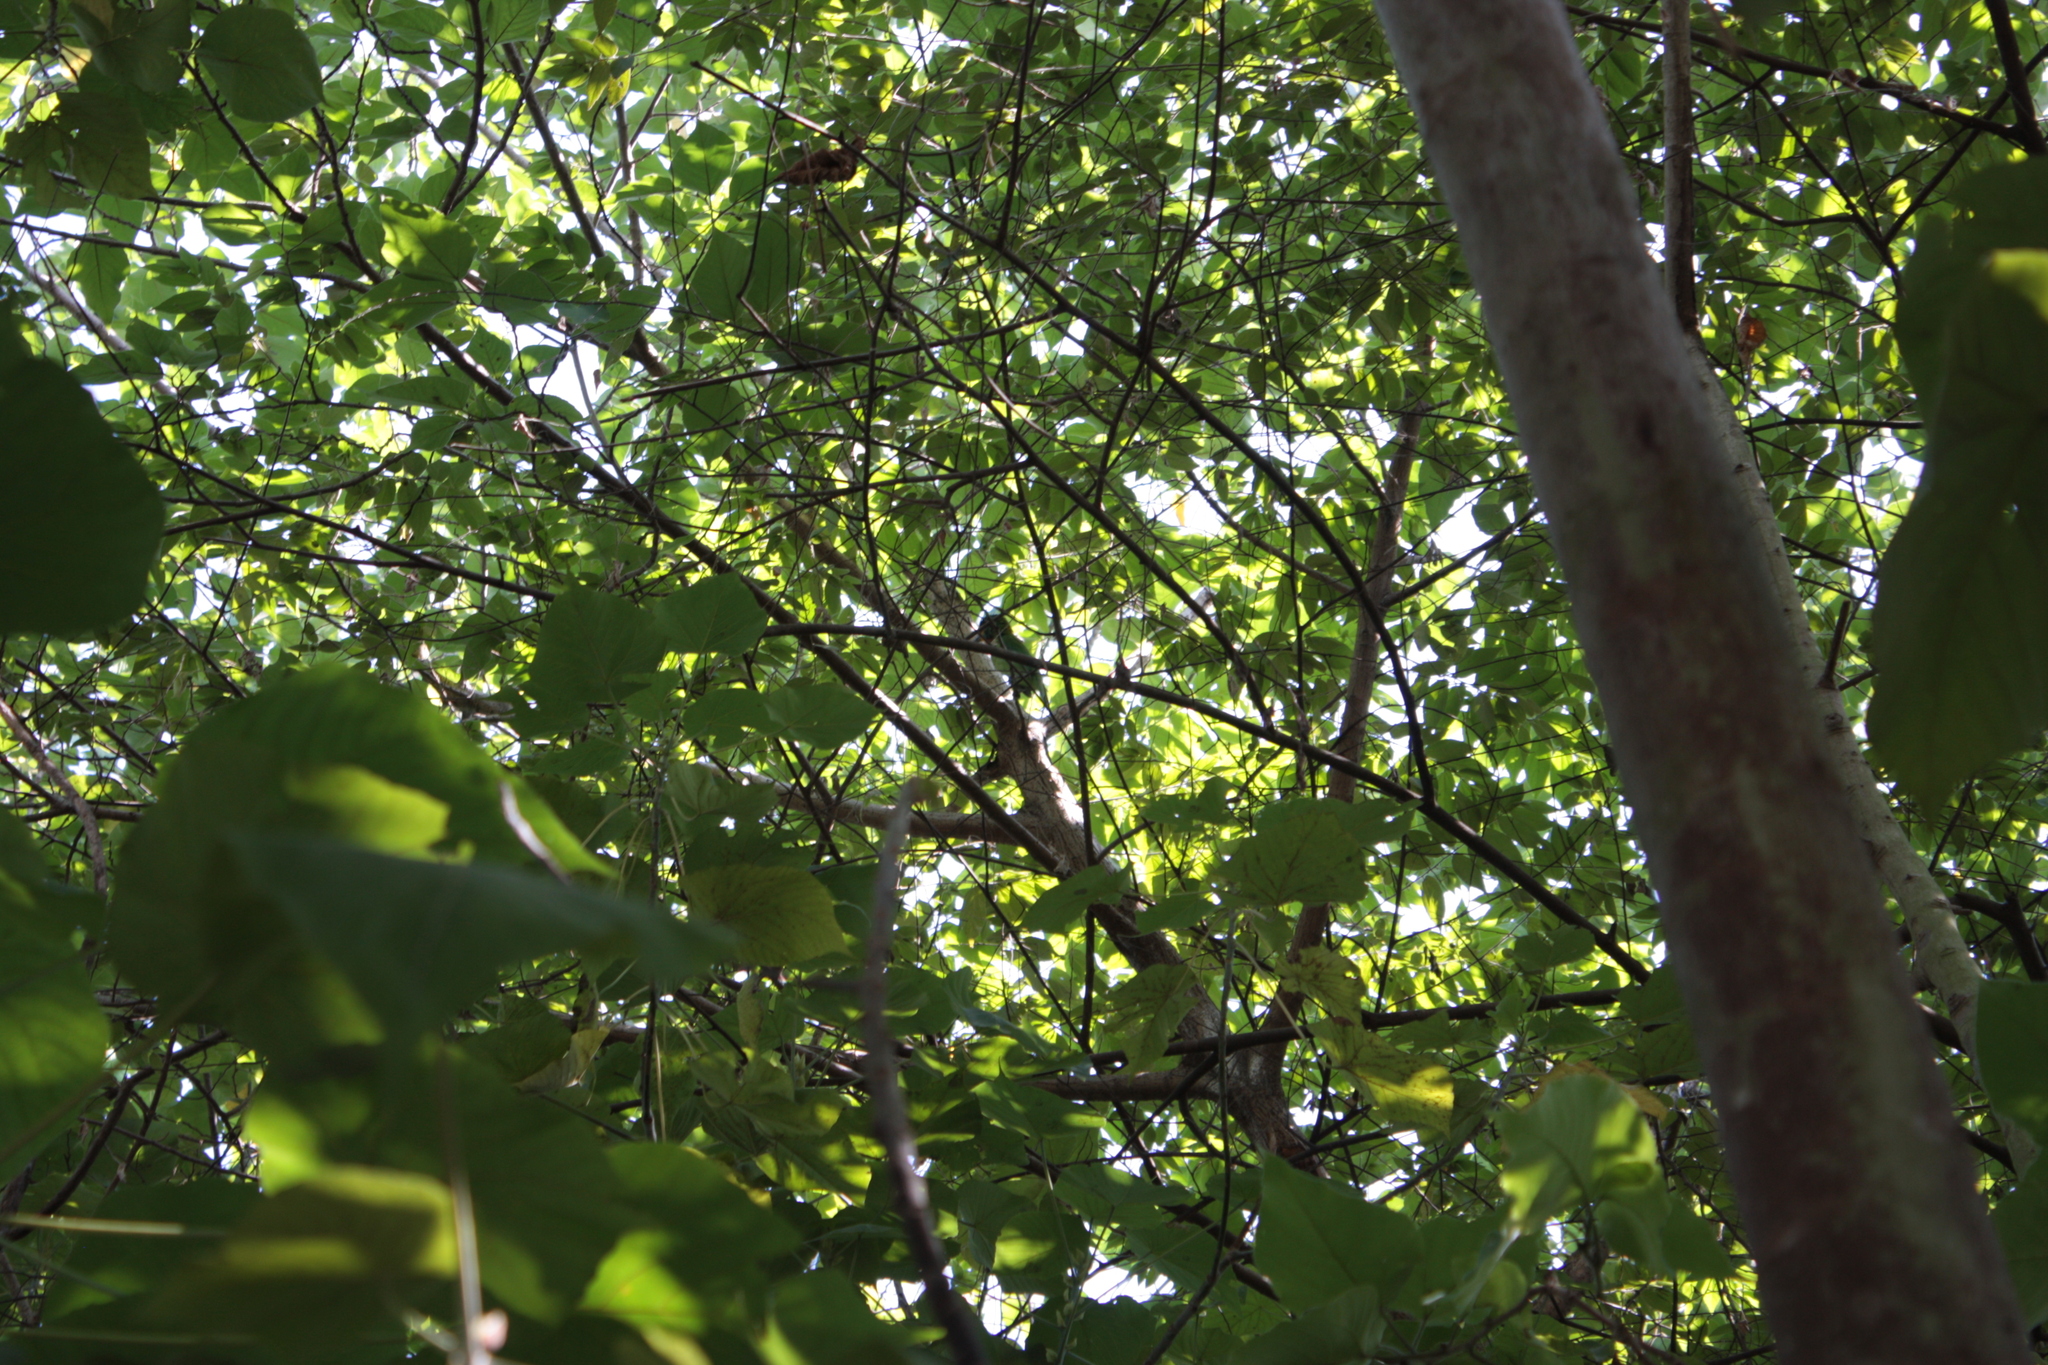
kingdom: Animalia
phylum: Chordata
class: Aves
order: Piciformes
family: Megalaimidae
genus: Psilopogon
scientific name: Psilopogon nuchalis
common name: Taiwan barbet
